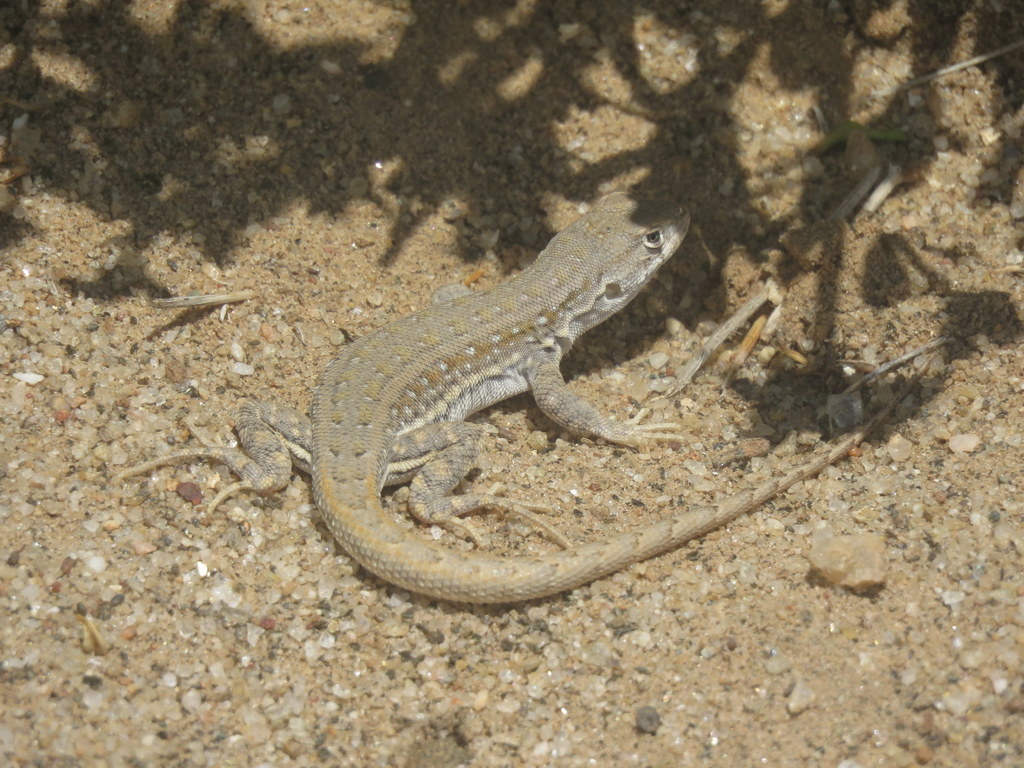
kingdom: Animalia
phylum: Chordata
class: Squamata
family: Liolaemidae
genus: Liolaemus
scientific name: Liolaemus quilmes
